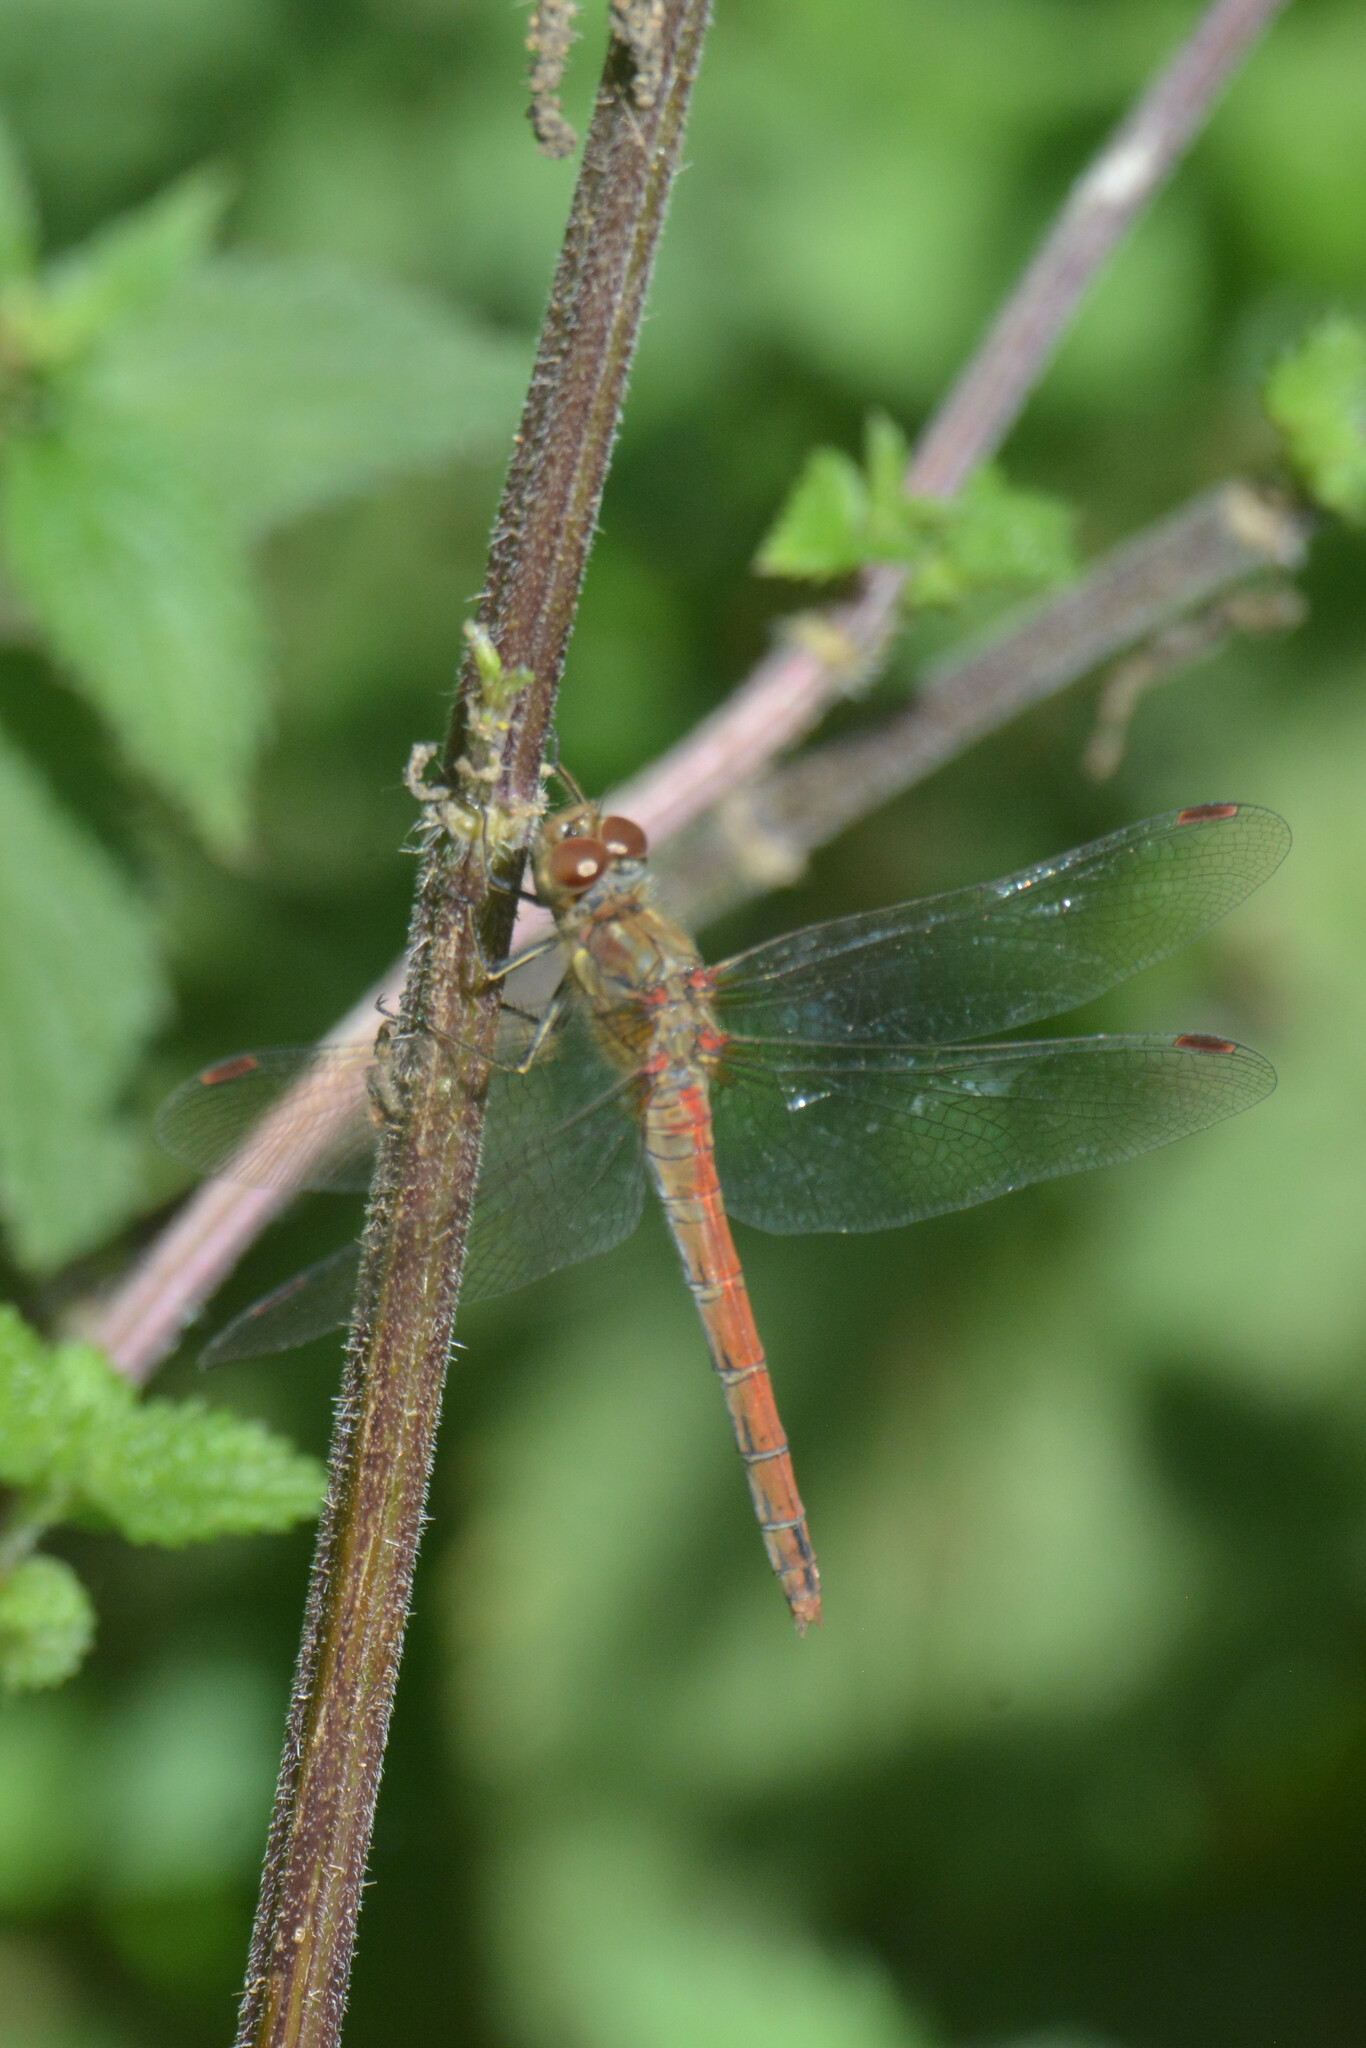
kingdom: Animalia
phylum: Arthropoda
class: Insecta
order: Odonata
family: Libellulidae
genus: Sympetrum
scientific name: Sympetrum striolatum
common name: Common darter
